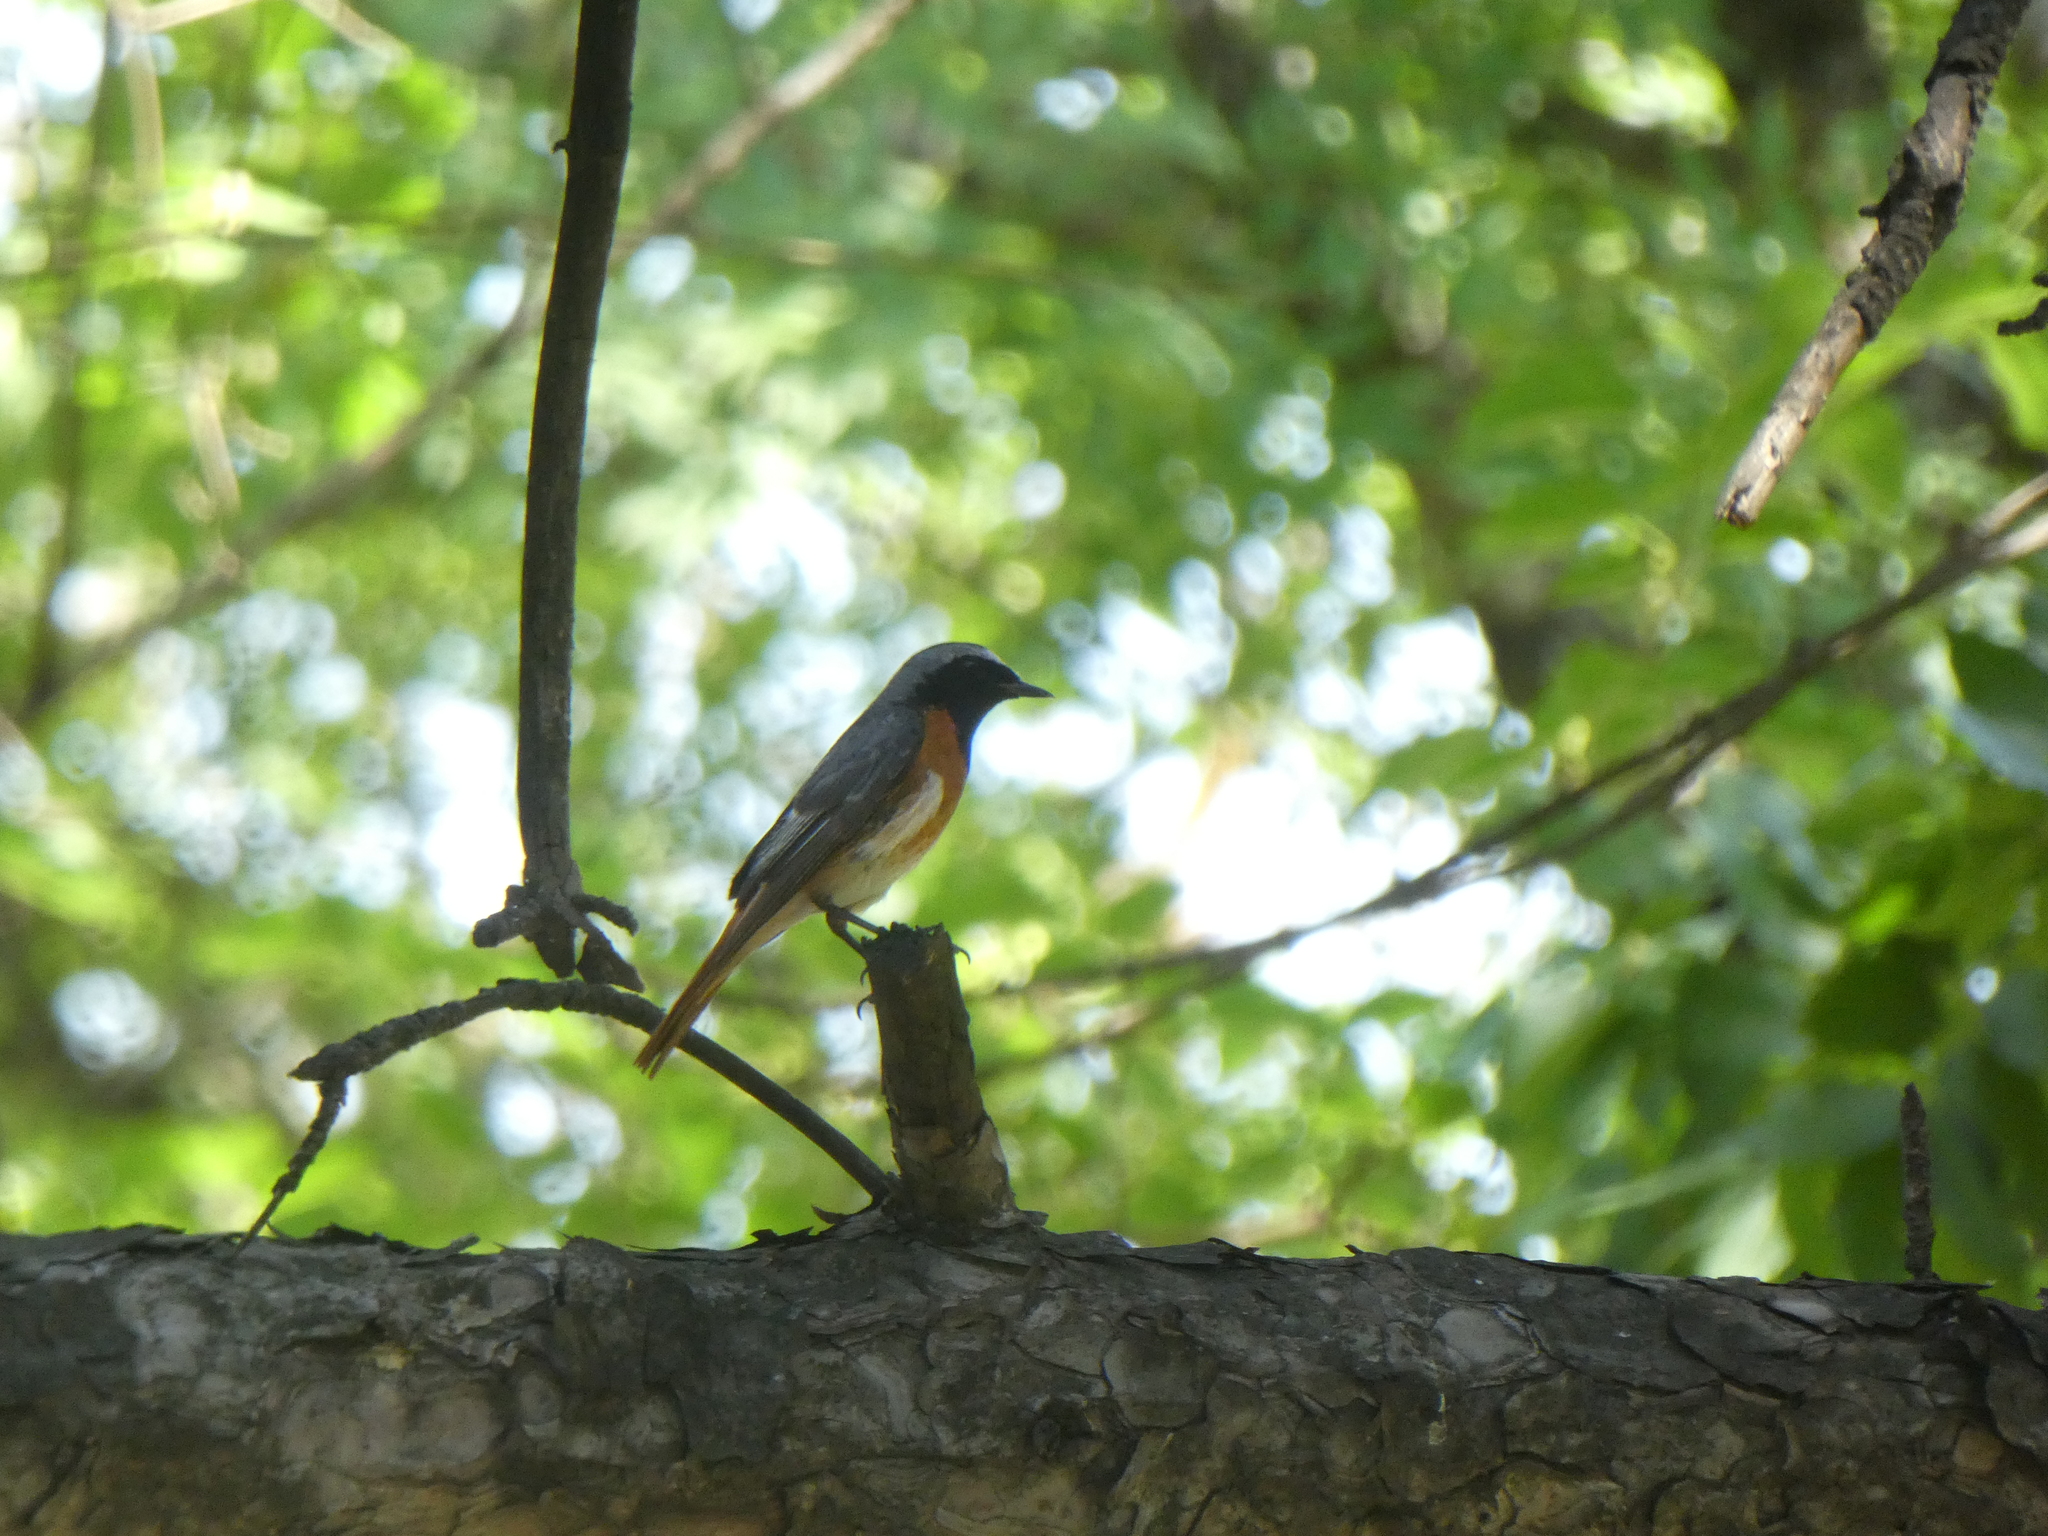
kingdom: Animalia
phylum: Chordata
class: Aves
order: Passeriformes
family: Muscicapidae
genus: Phoenicurus
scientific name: Phoenicurus phoenicurus
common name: Common redstart
